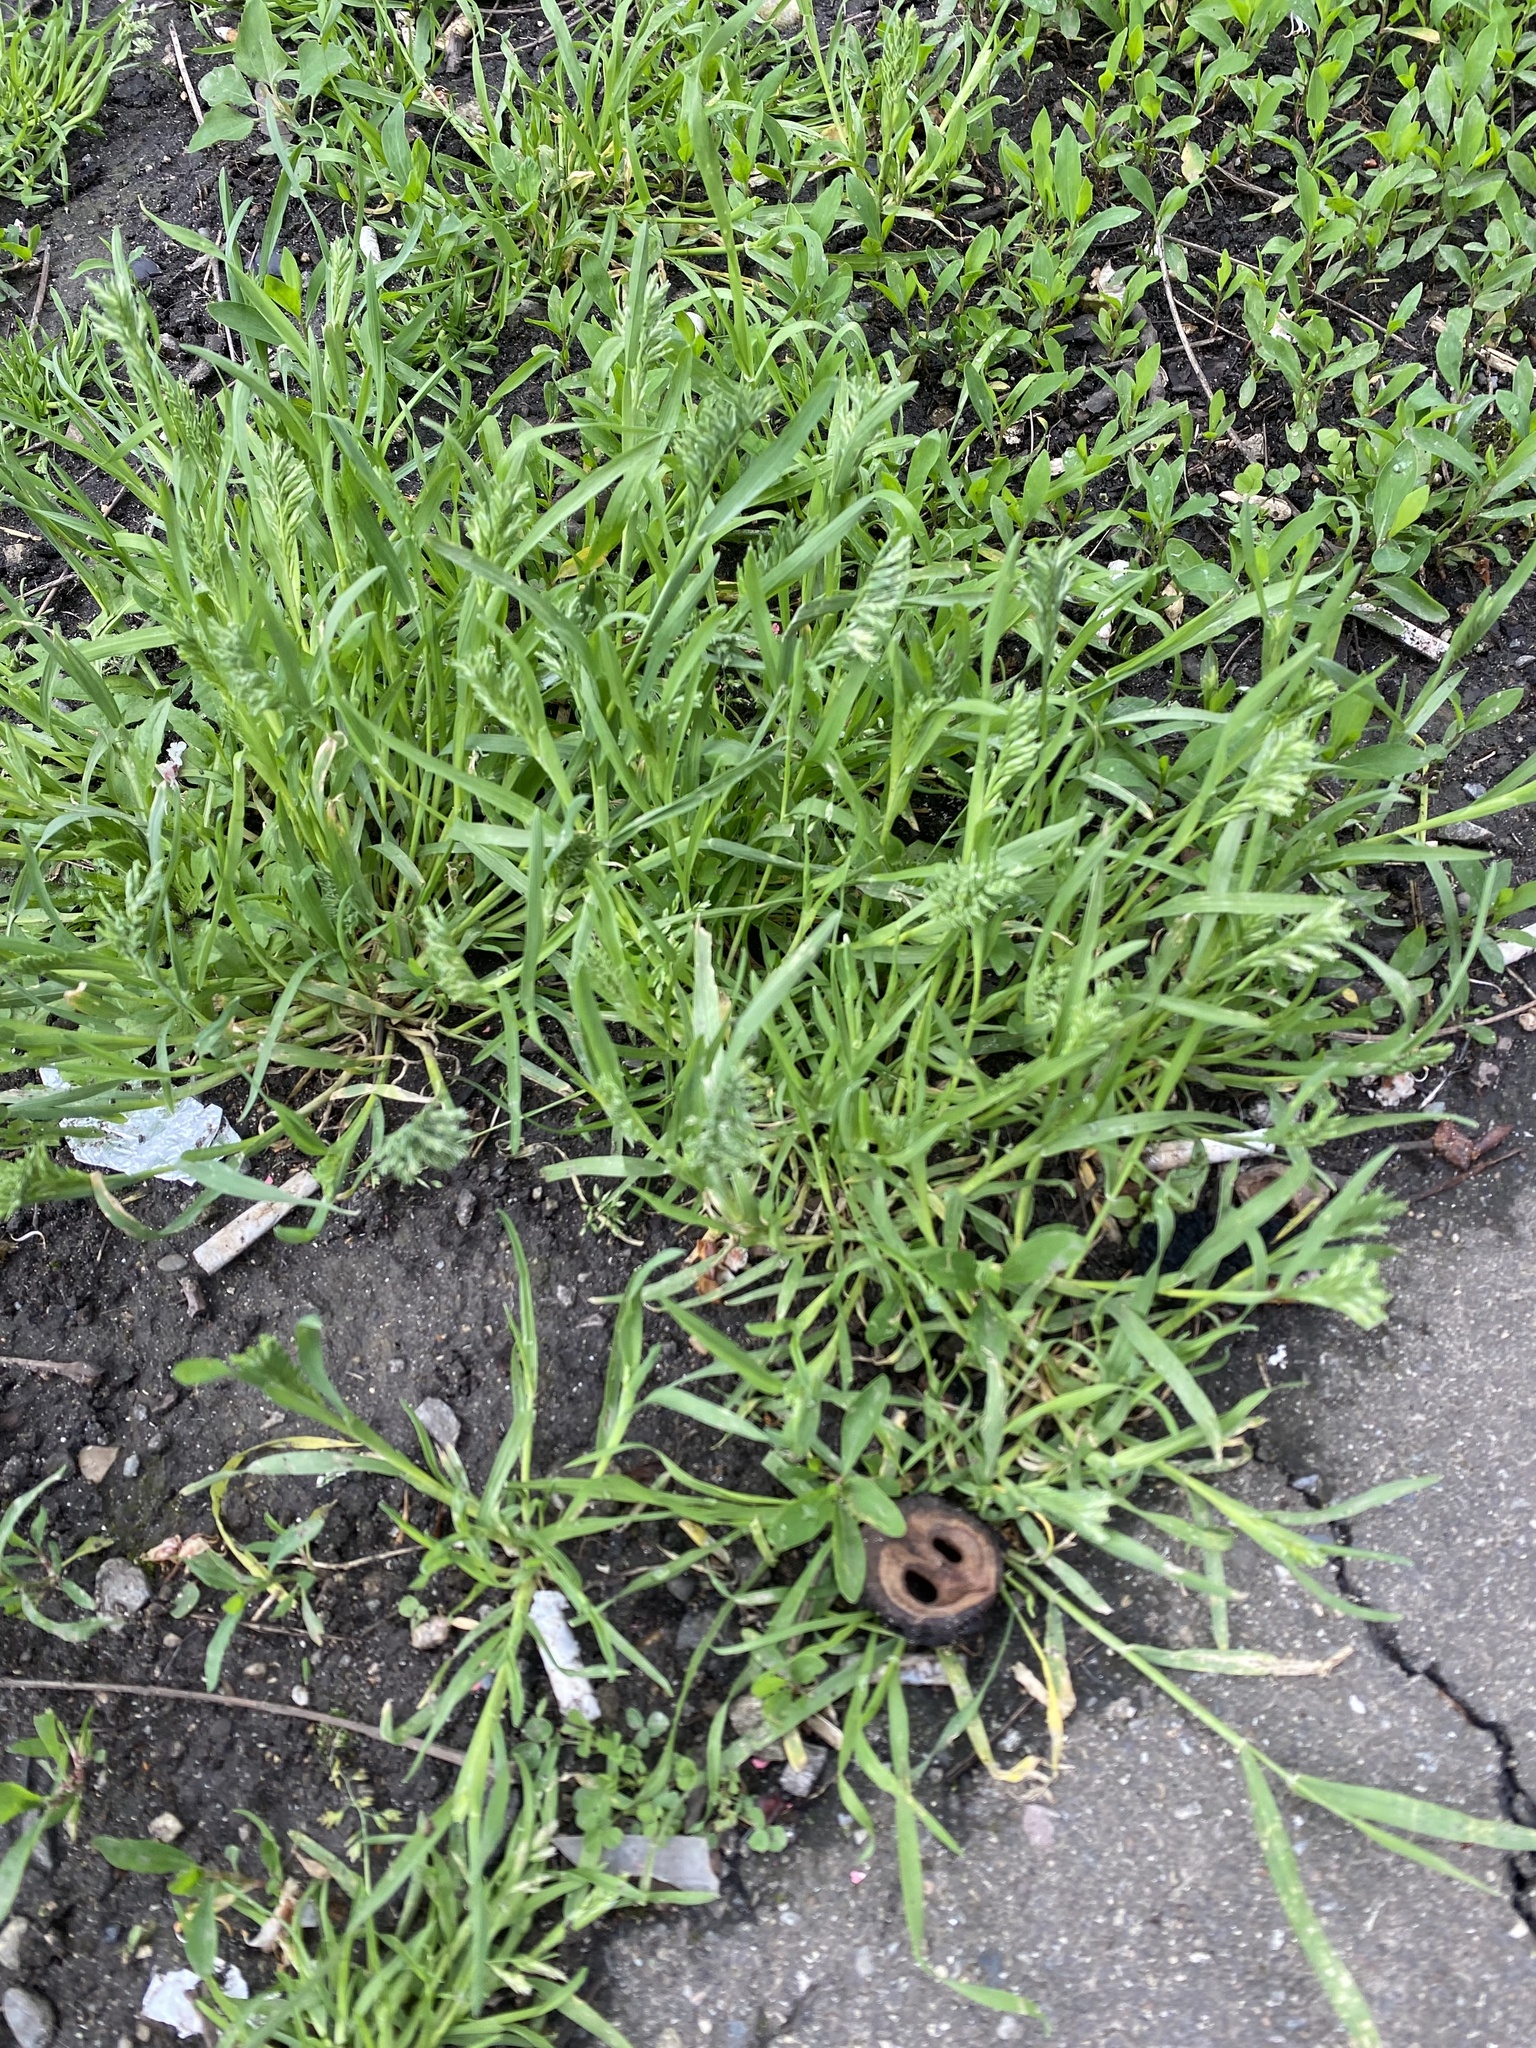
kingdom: Plantae
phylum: Tracheophyta
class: Liliopsida
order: Poales
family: Poaceae
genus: Sclerochloa
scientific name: Sclerochloa dura
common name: Common hardgrass
